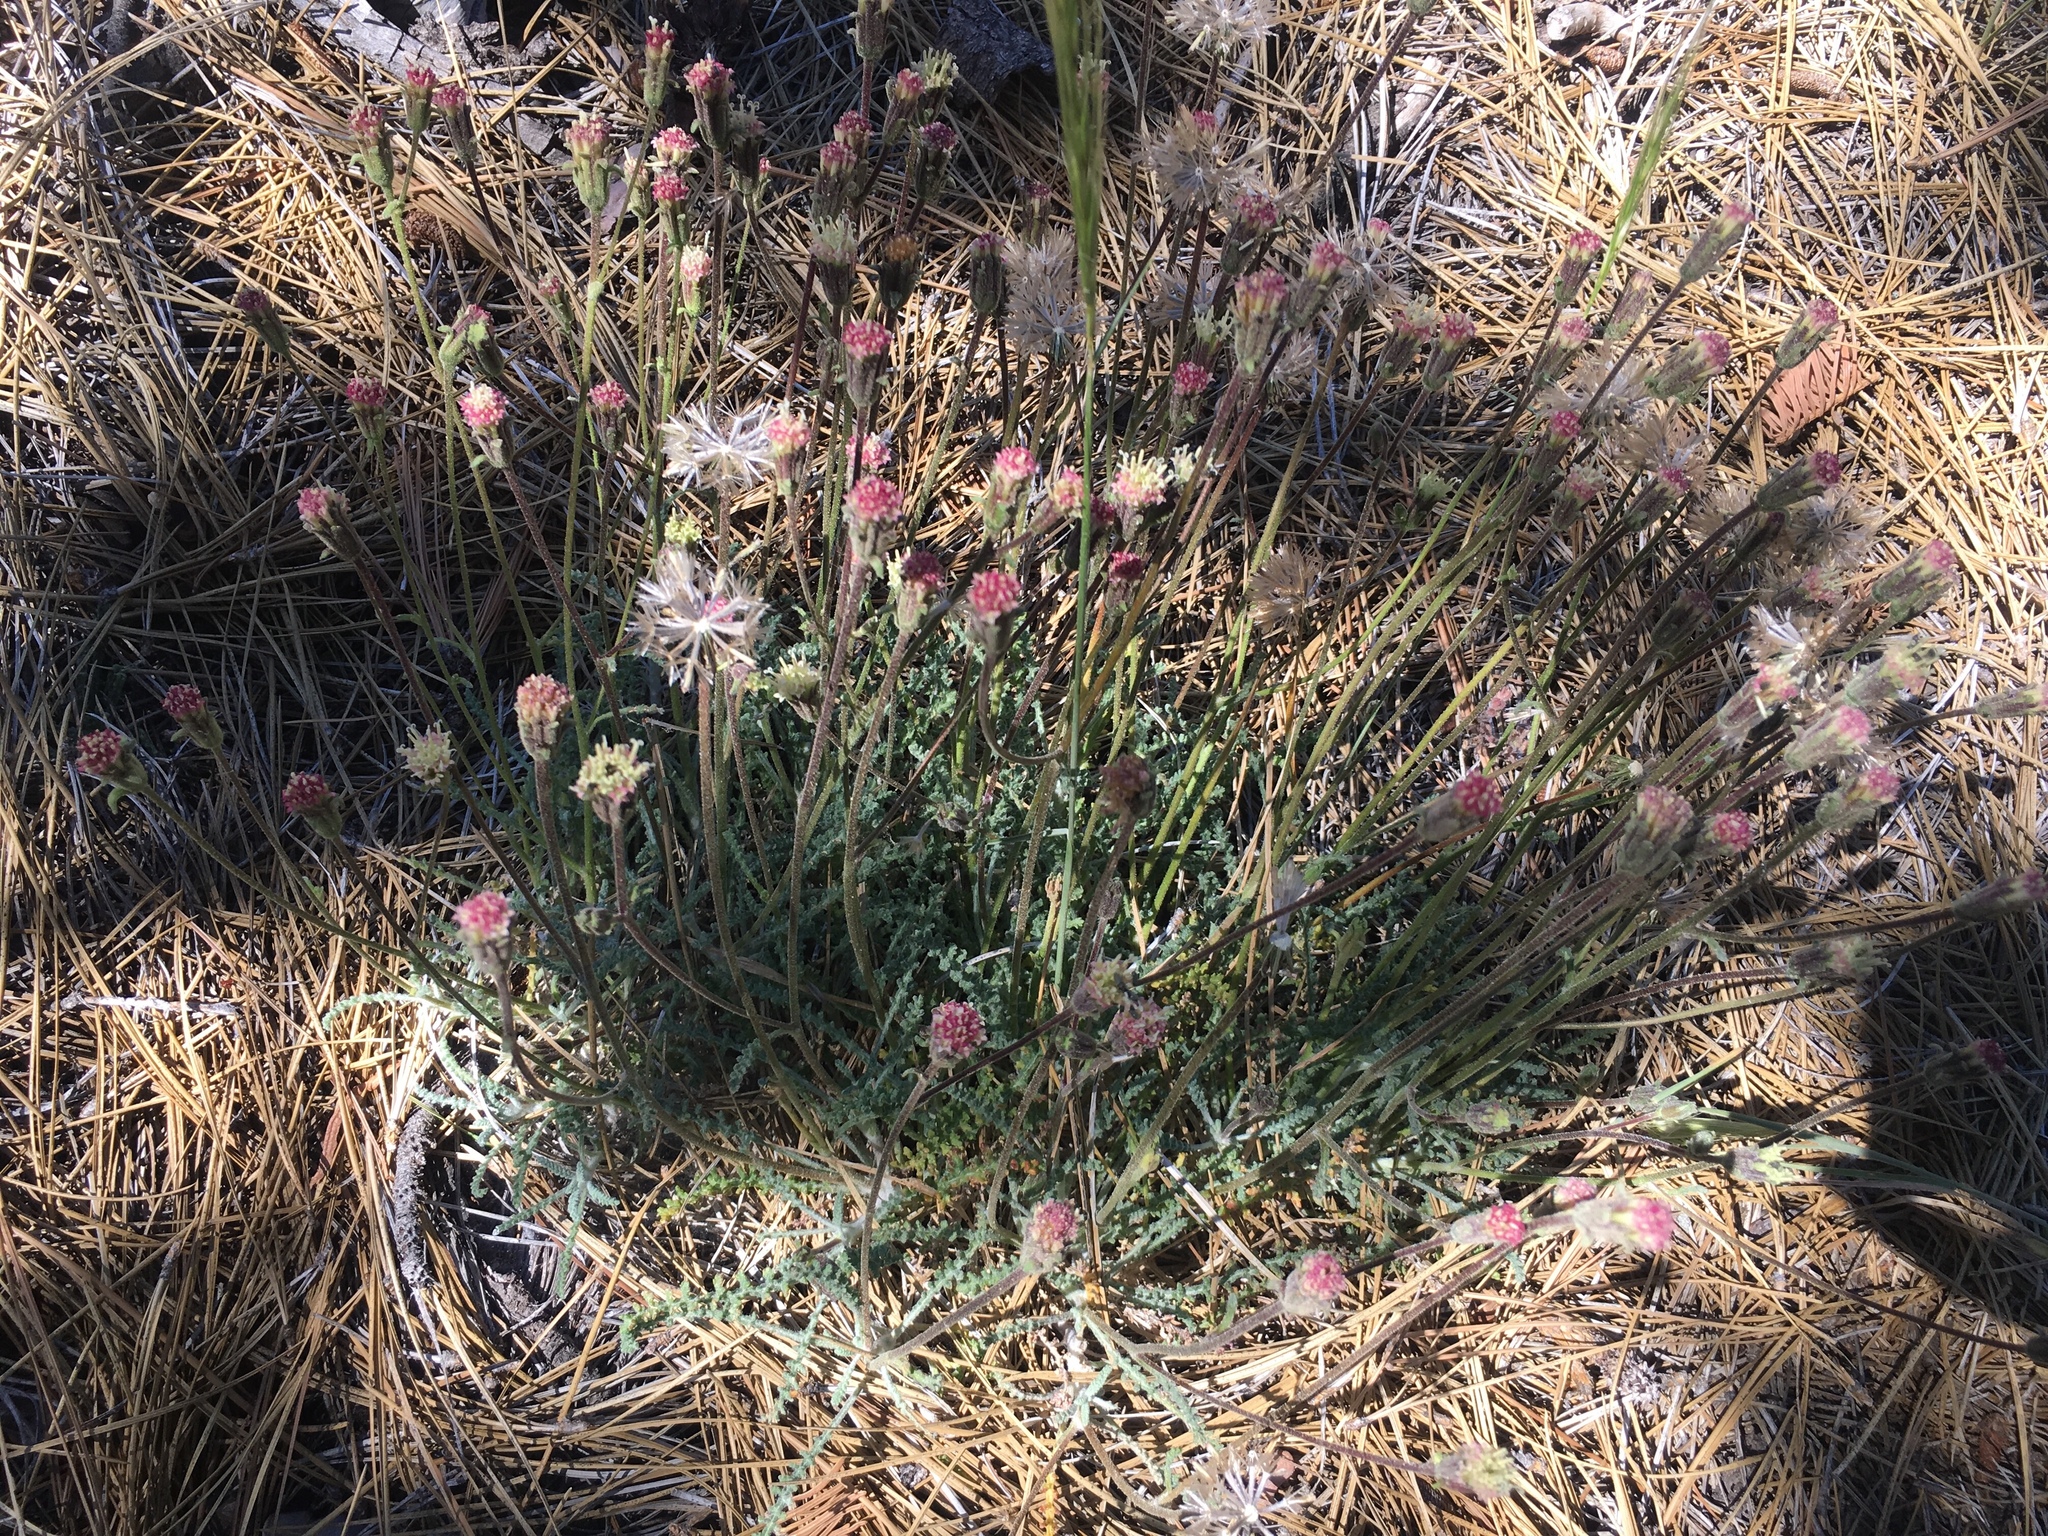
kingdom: Plantae
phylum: Tracheophyta
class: Magnoliopsida
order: Asterales
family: Asteraceae
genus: Chaenactis
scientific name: Chaenactis santolinoides
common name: Santolina pincushion
